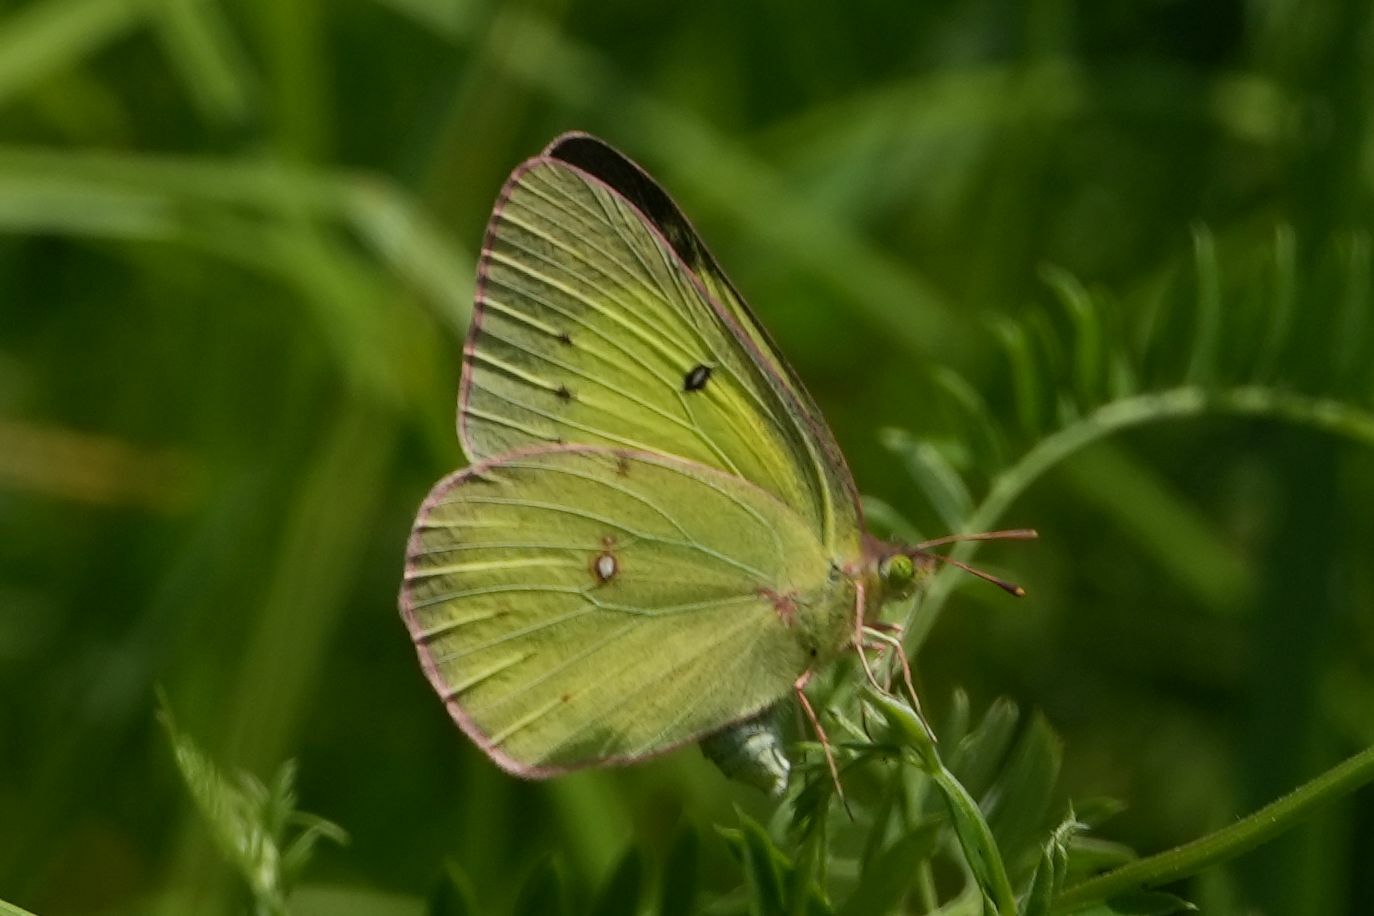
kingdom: Animalia
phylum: Arthropoda
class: Insecta
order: Lepidoptera
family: Pieridae
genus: Colias
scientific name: Colias philodice
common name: Clouded sulphur
